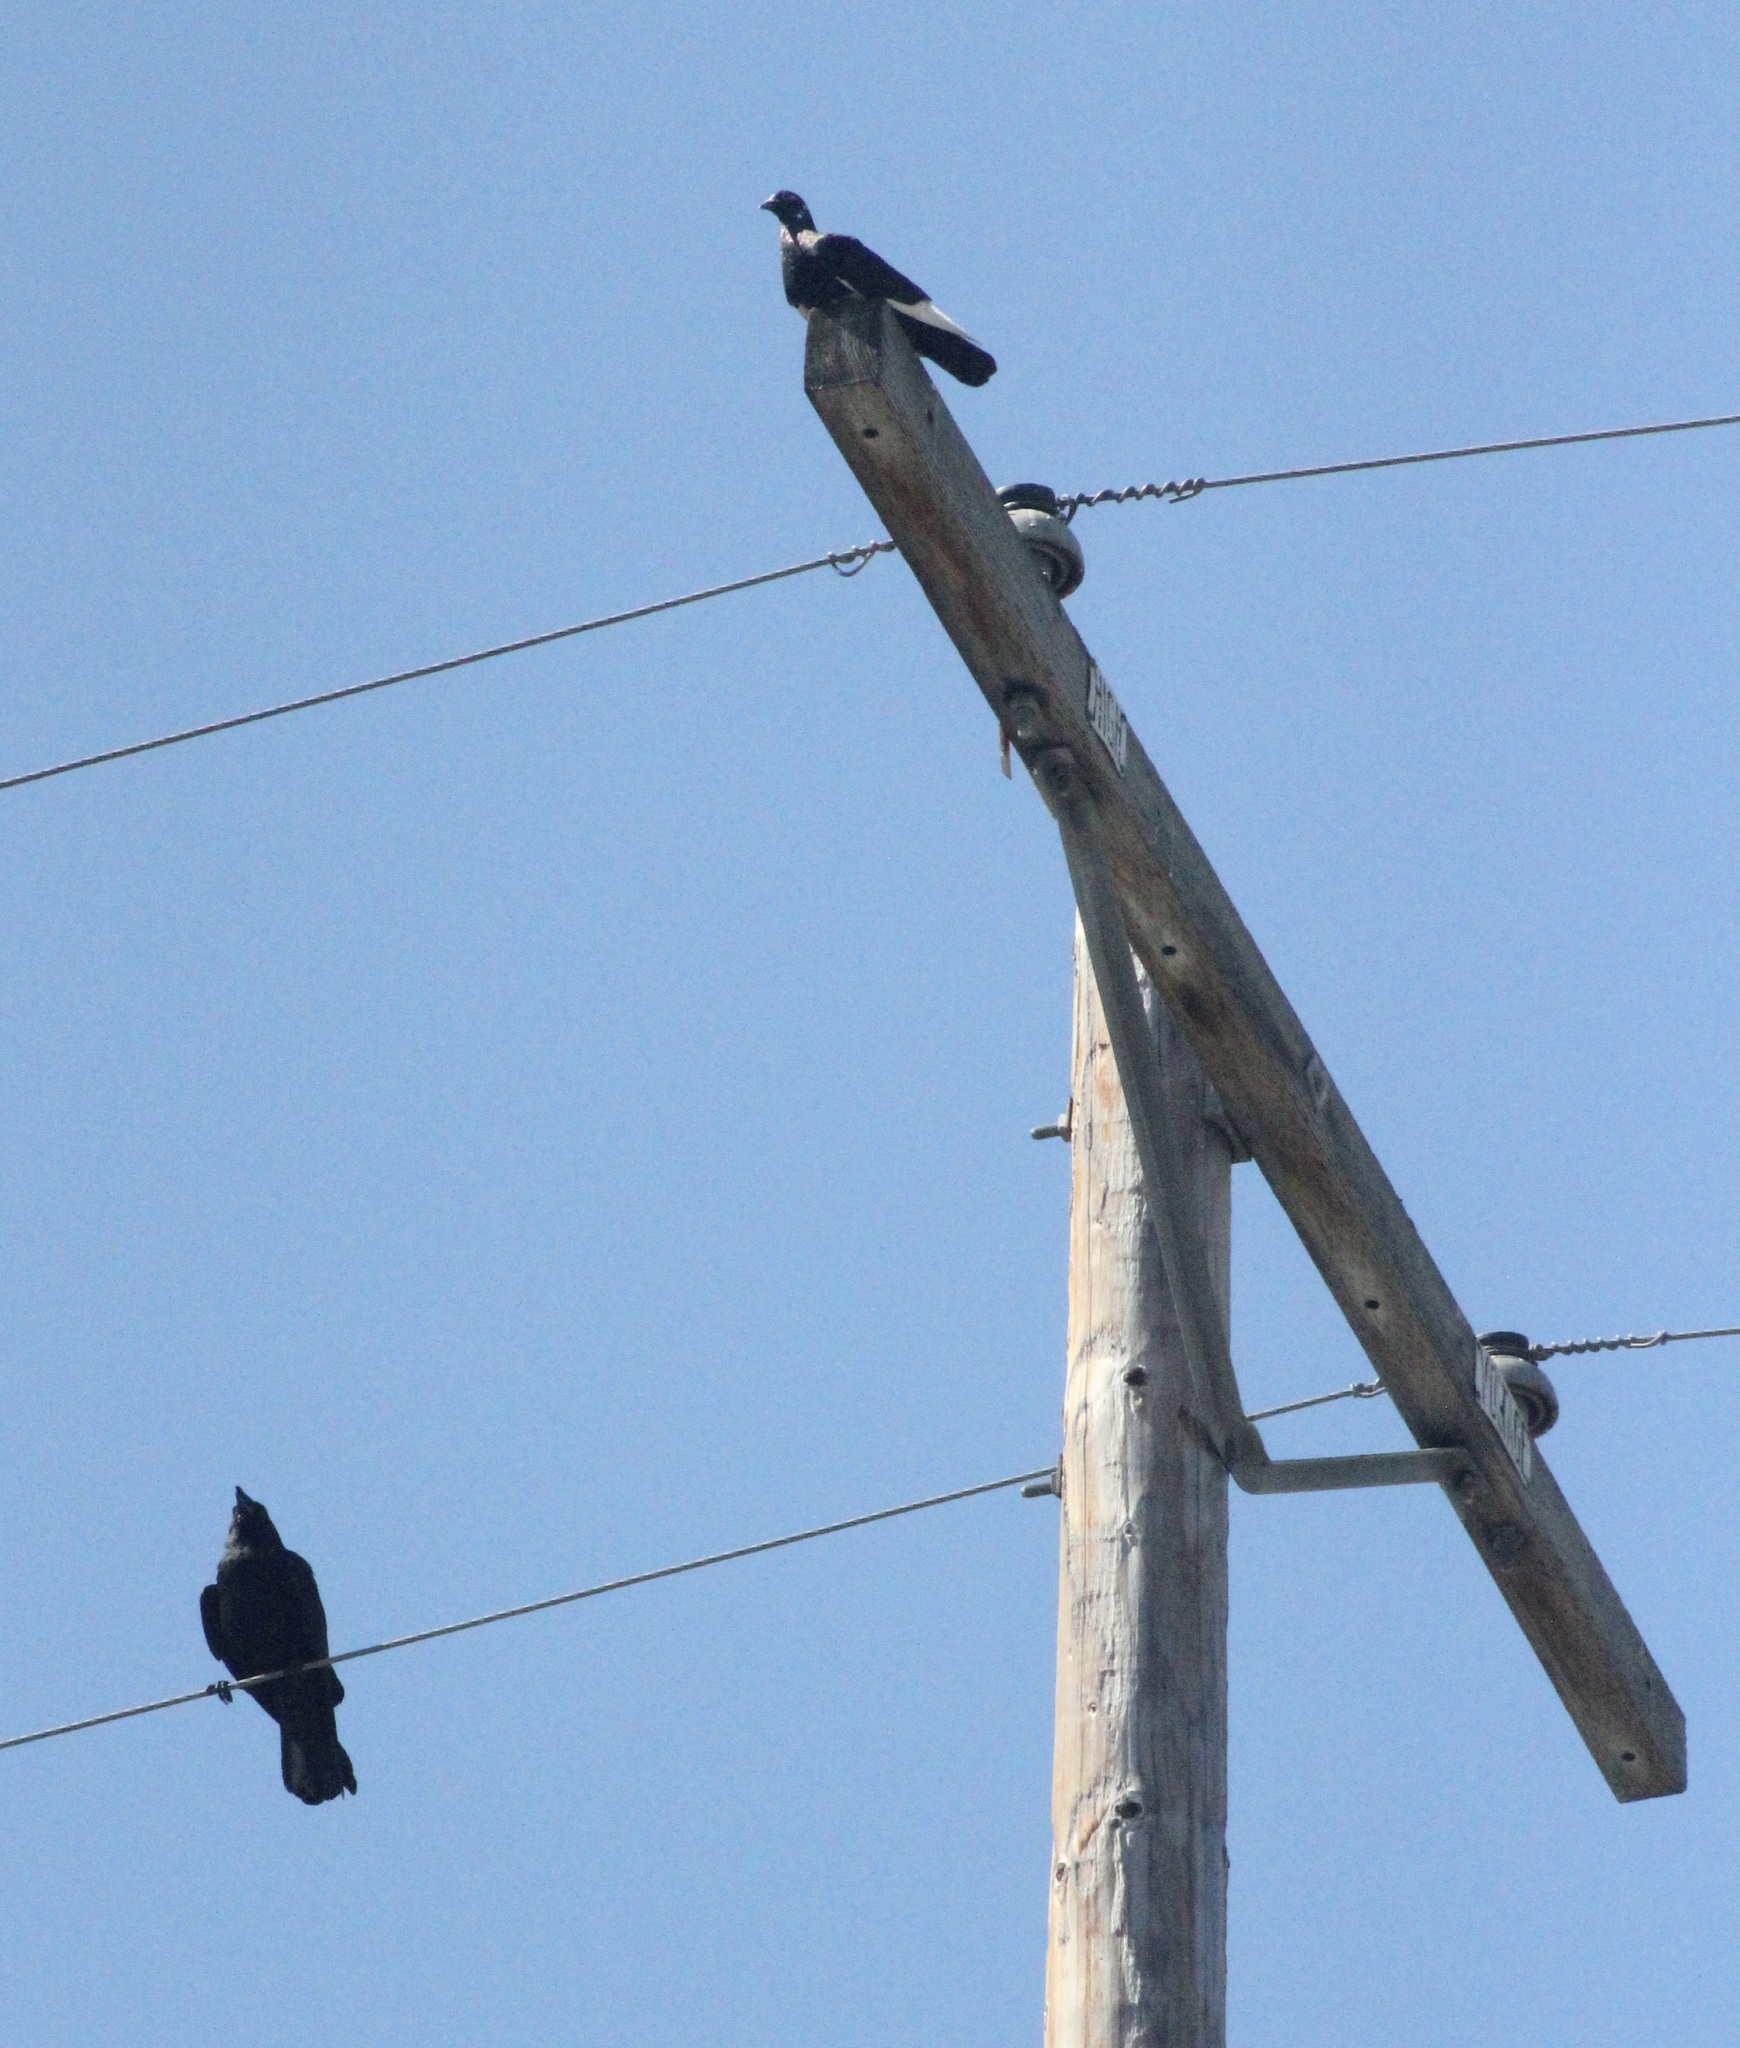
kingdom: Animalia
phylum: Chordata
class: Aves
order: Columbiformes
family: Columbidae
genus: Columba
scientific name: Columba livia
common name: Rock pigeon
